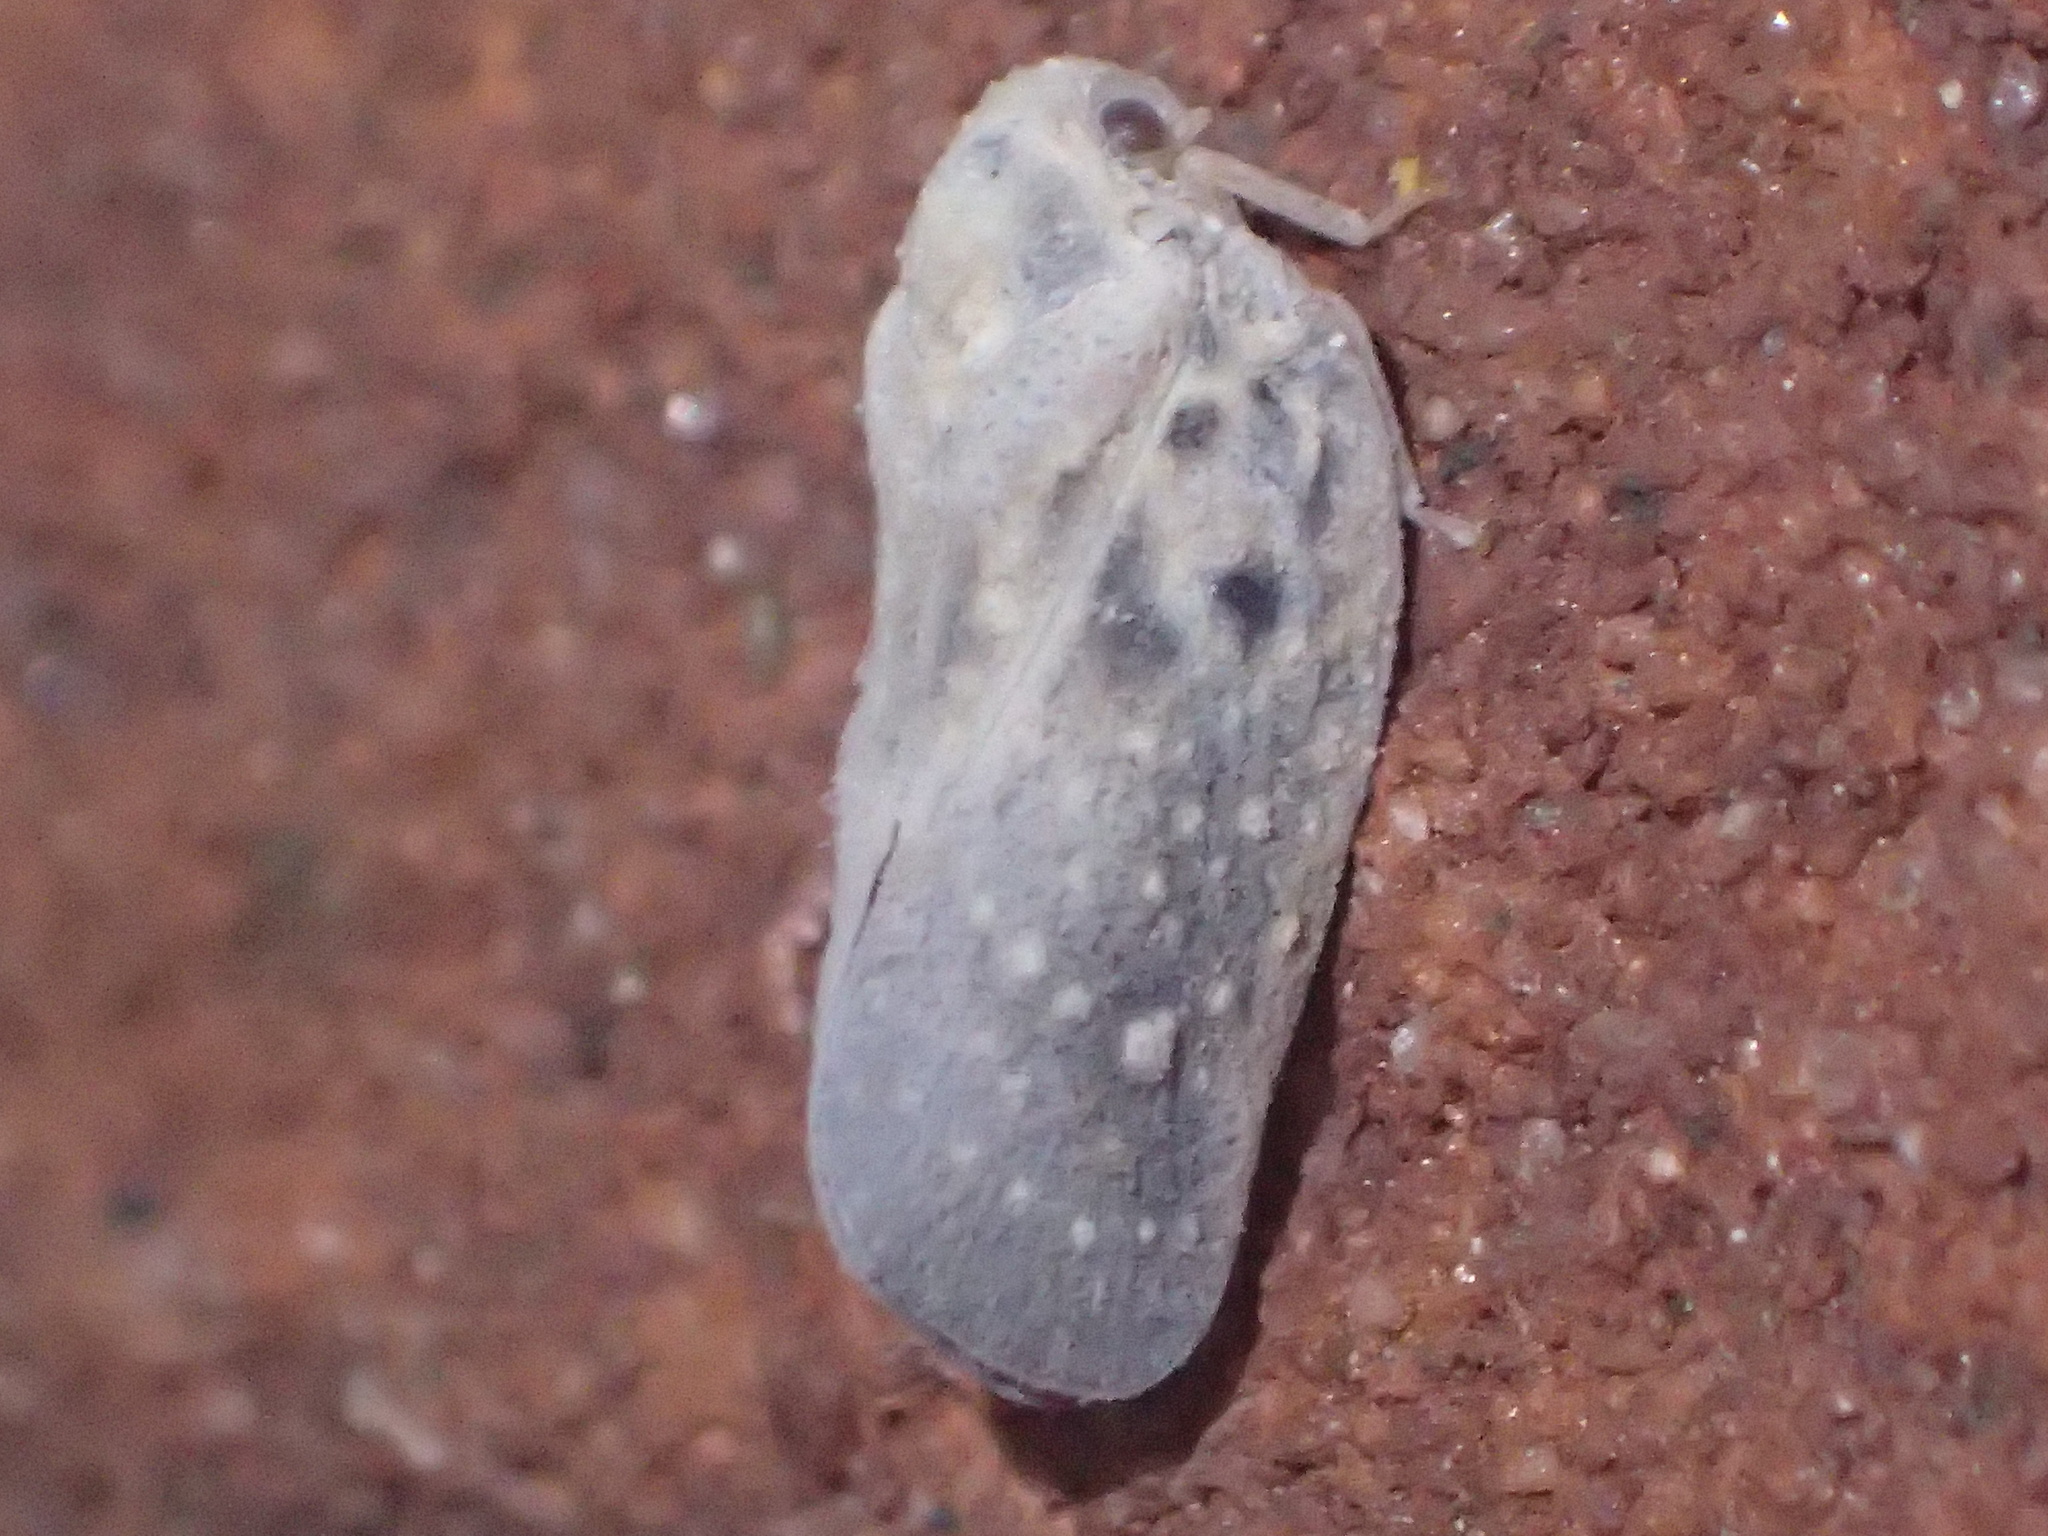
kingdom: Animalia
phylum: Arthropoda
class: Insecta
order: Hemiptera
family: Flatidae
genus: Metcalfa
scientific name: Metcalfa pruinosa
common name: Citrus flatid planthopper
